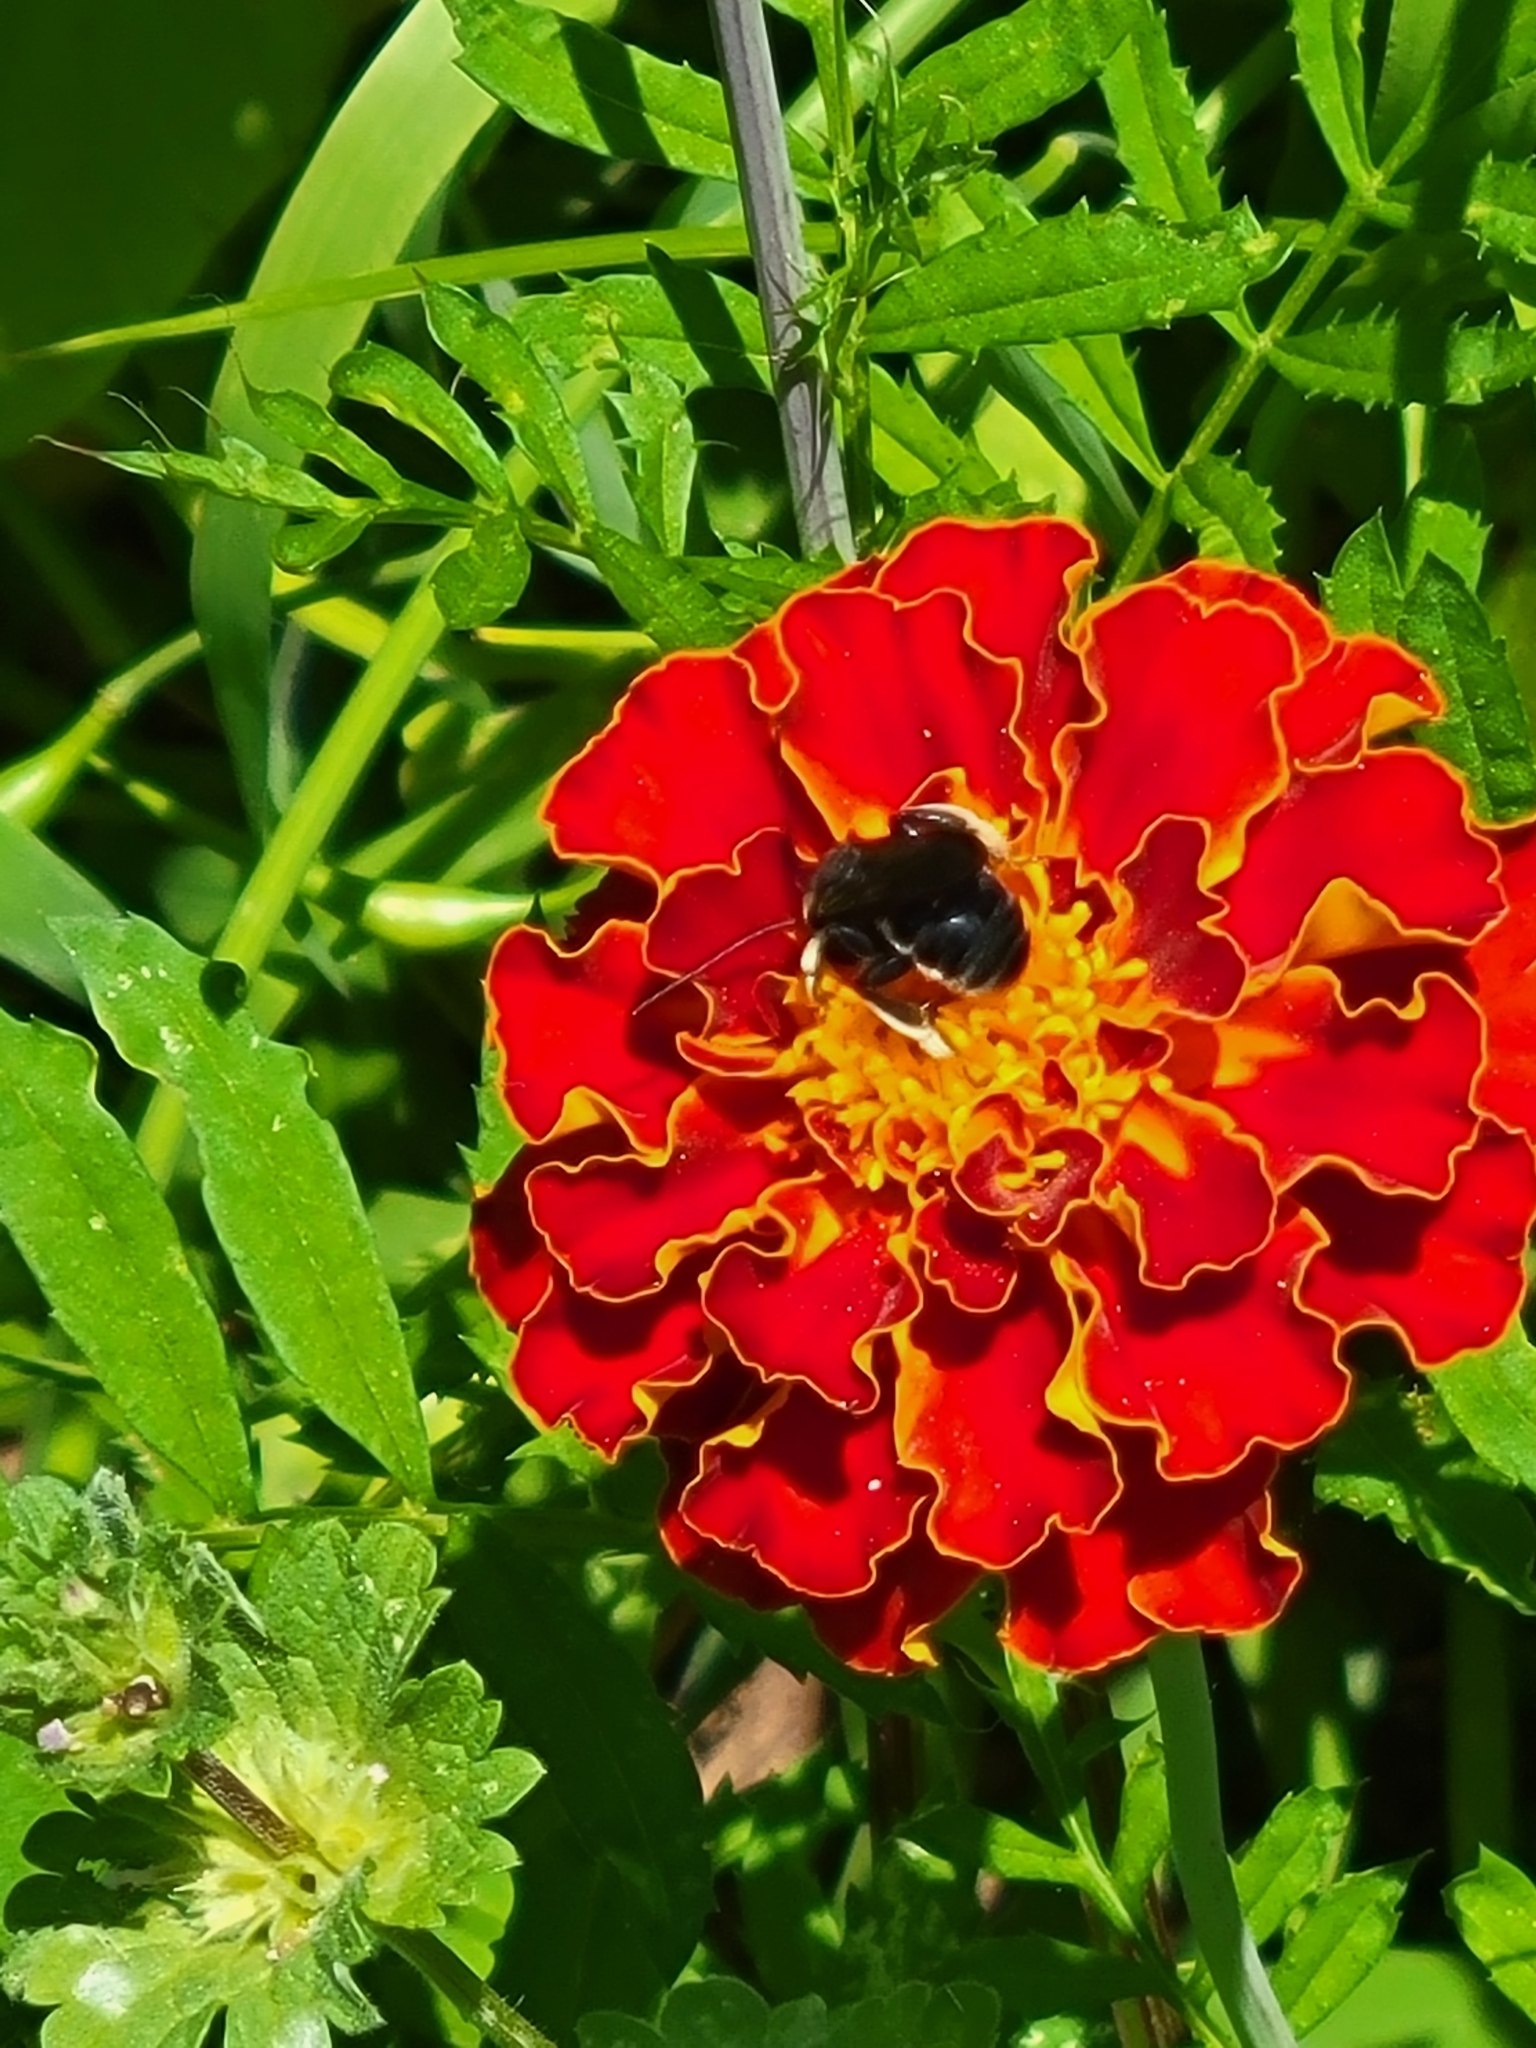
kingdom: Animalia
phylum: Arthropoda
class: Insecta
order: Hymenoptera
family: Apidae
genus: Melissodes
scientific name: Melissodes bimaculatus
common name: Two-spotted long-horned bee
